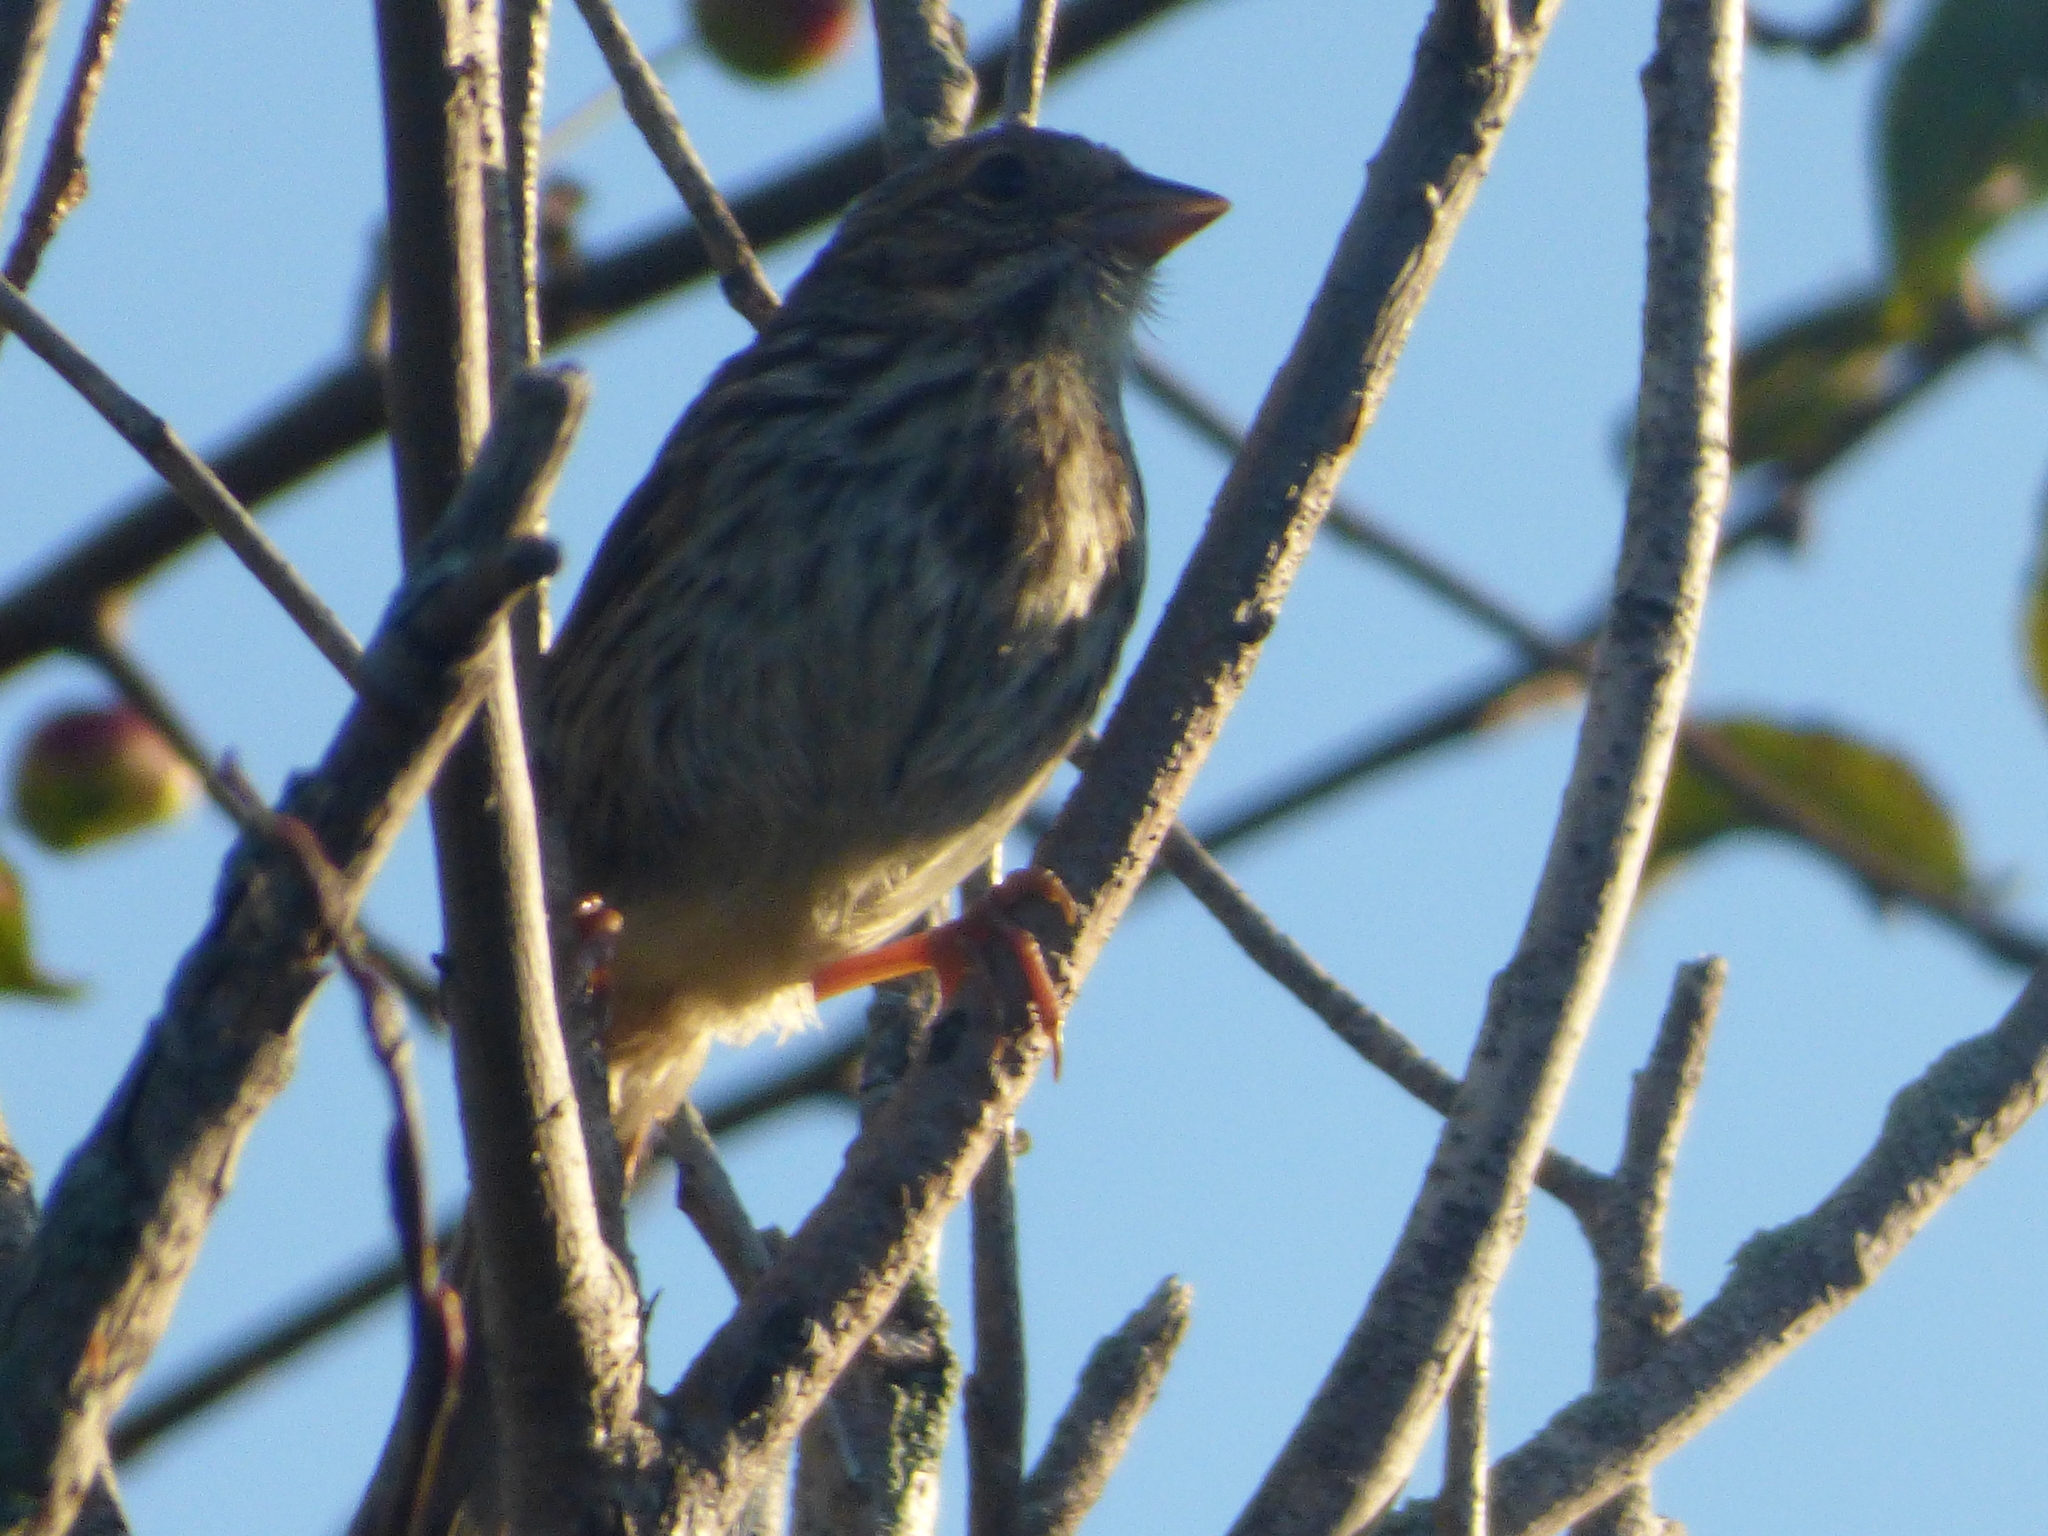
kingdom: Animalia
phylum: Chordata
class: Aves
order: Passeriformes
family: Passerellidae
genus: Melospiza
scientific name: Melospiza melodia
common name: Song sparrow
